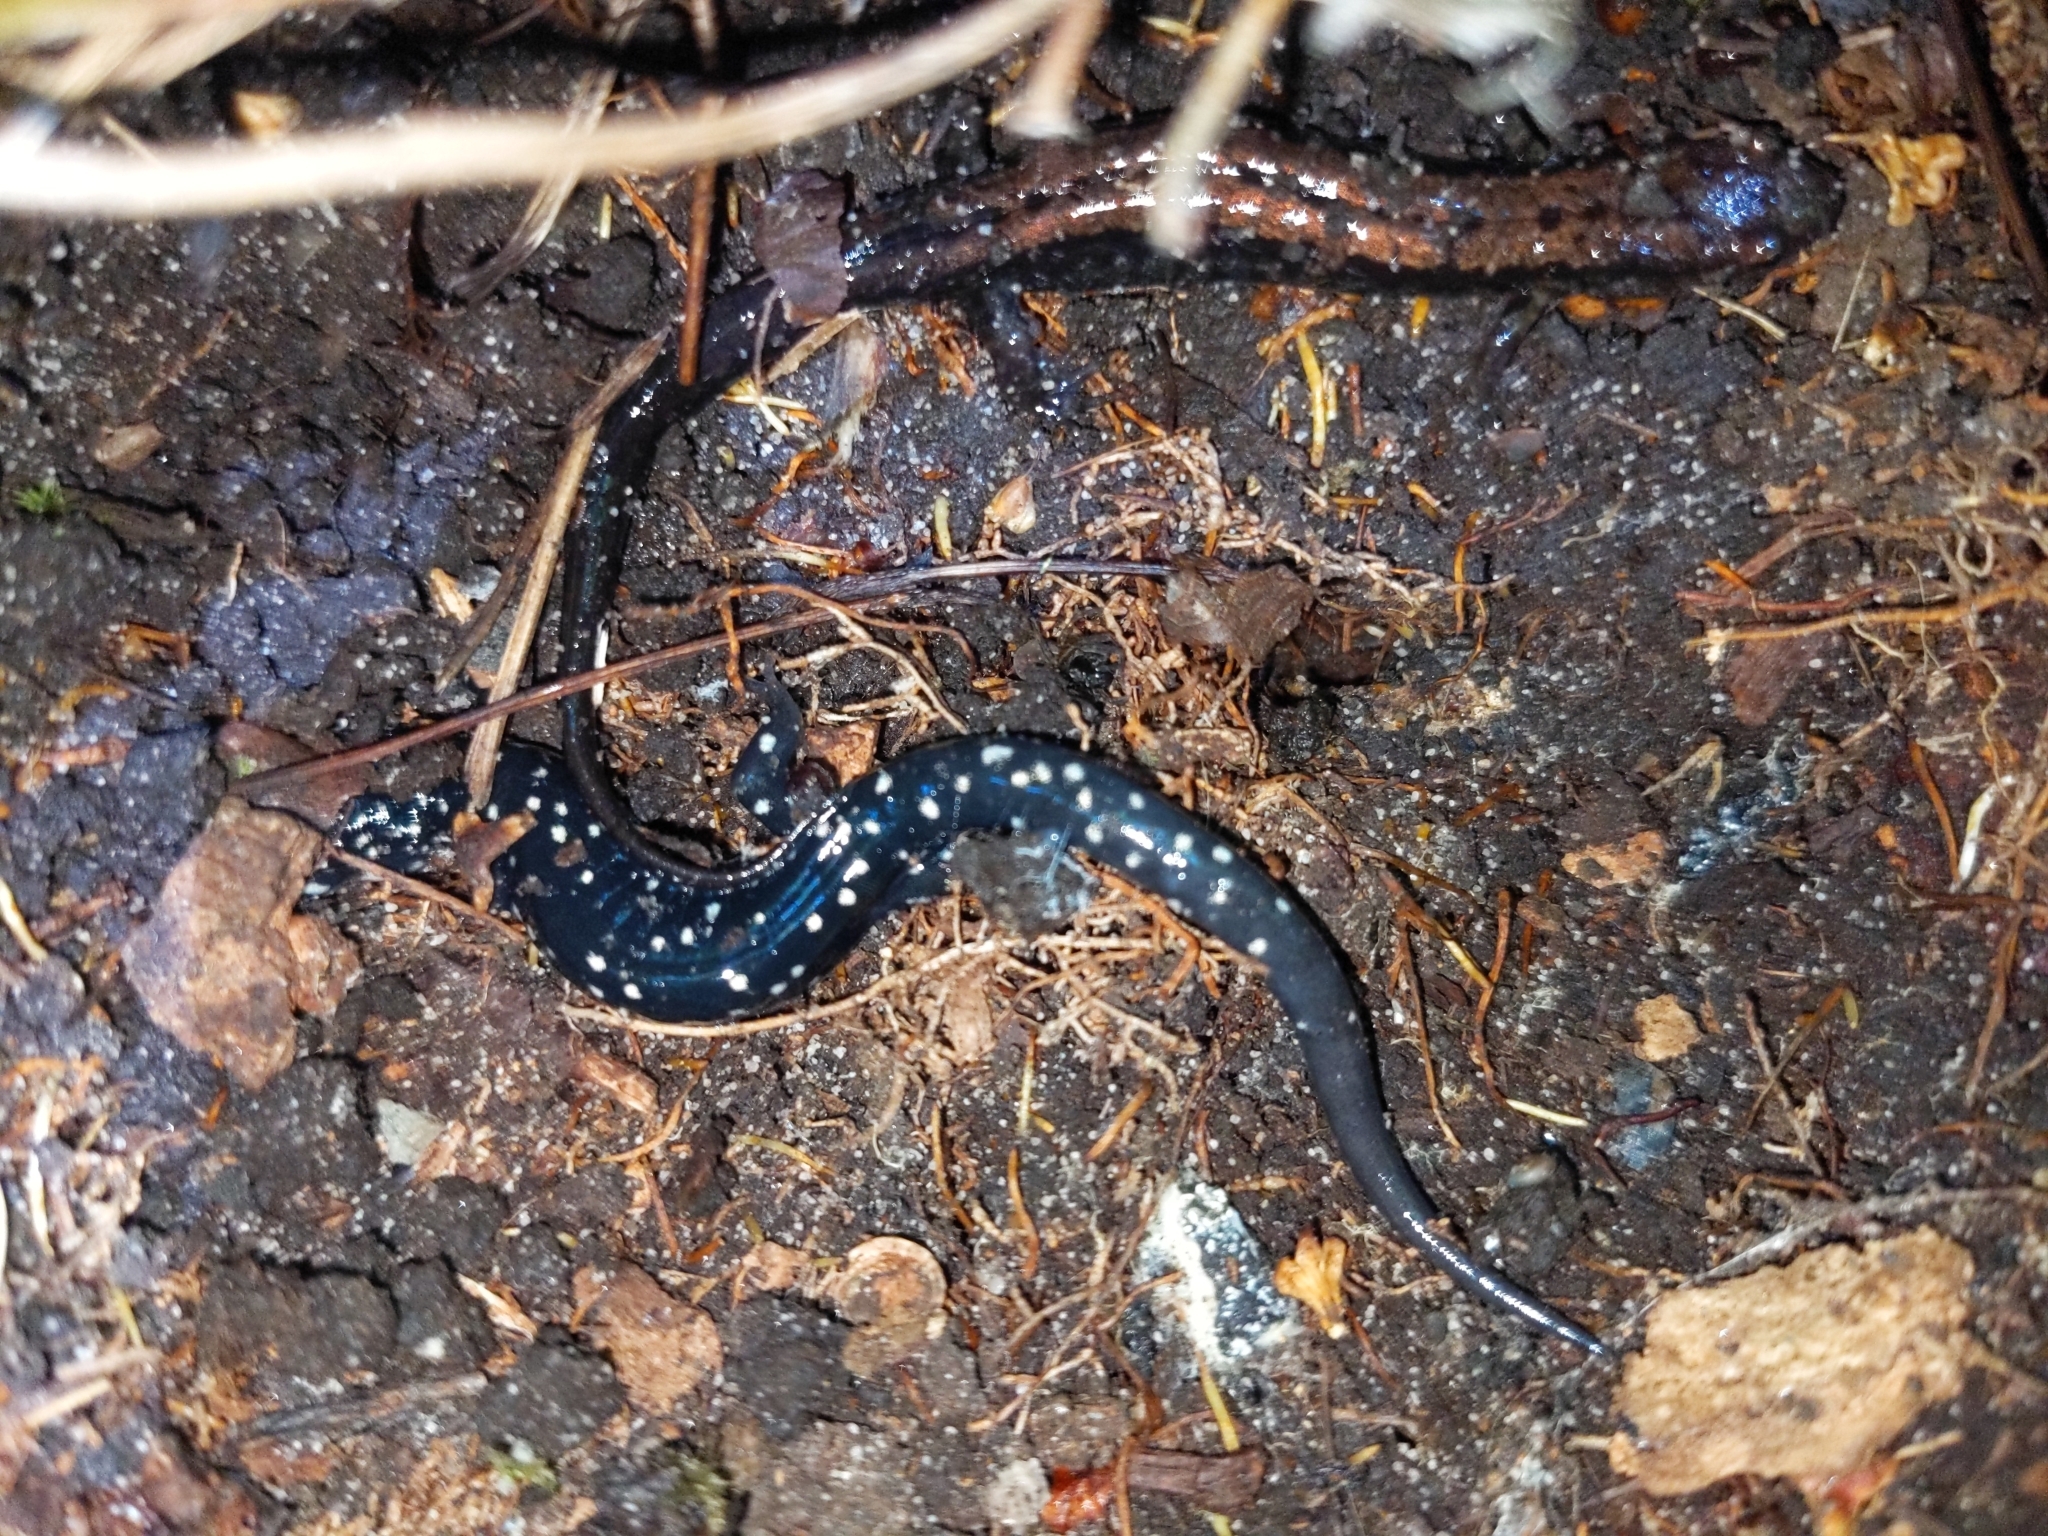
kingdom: Animalia
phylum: Chordata
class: Amphibia
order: Caudata
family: Plethodontidae
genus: Plethodon
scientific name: Plethodon glutinosus
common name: Northern slimy salamander
